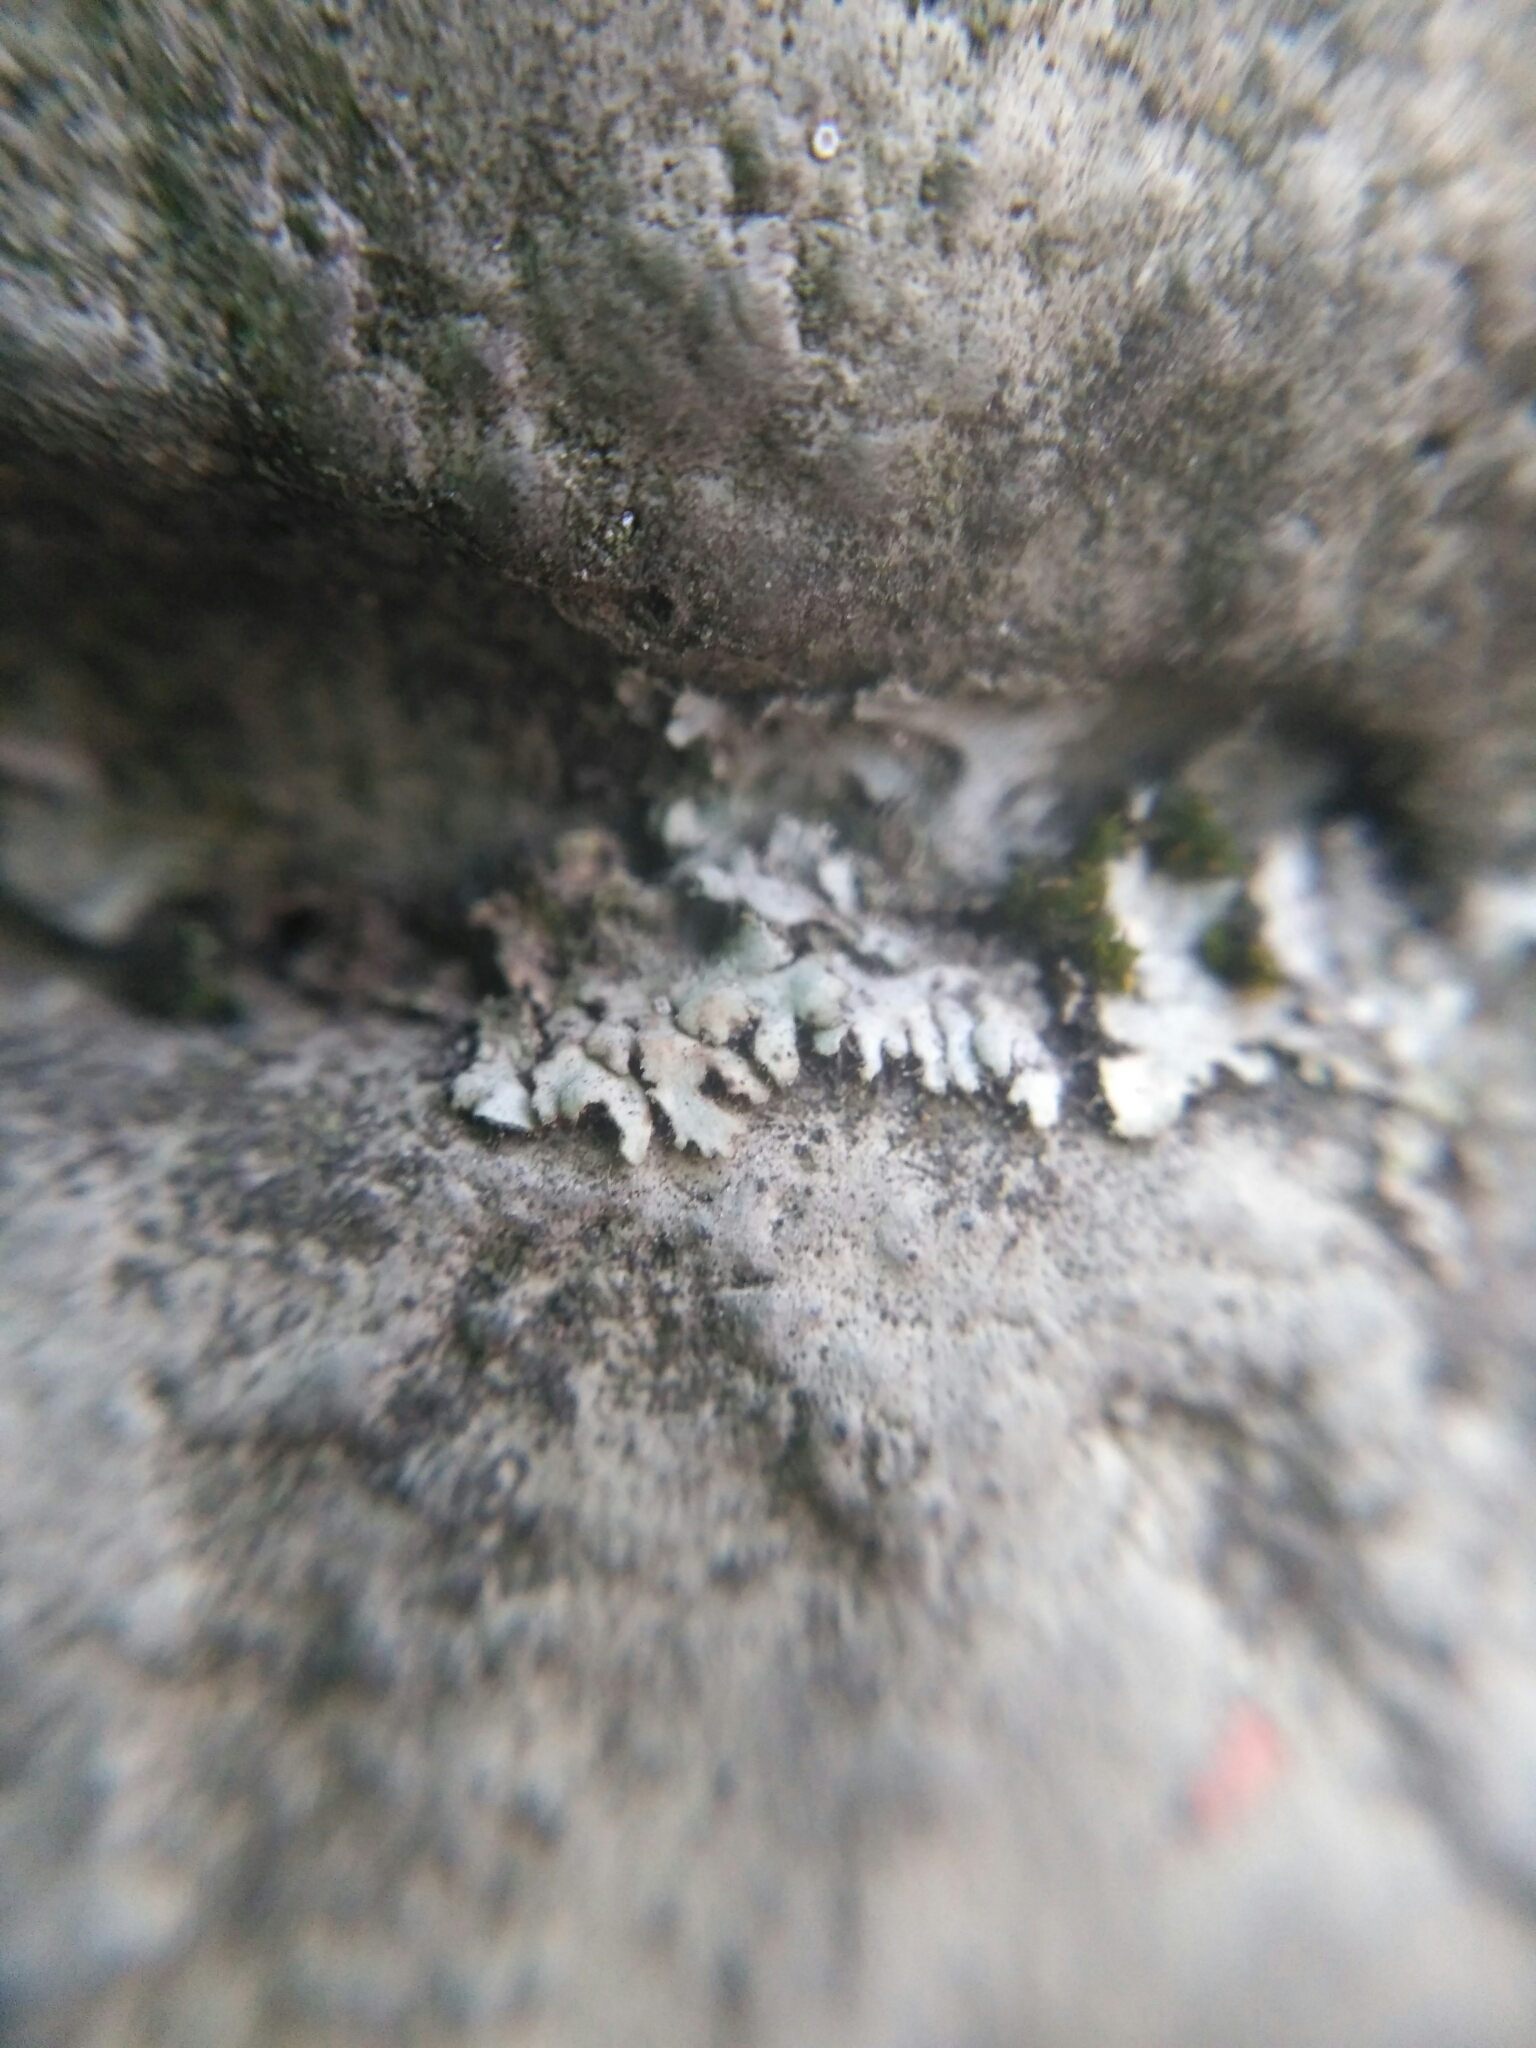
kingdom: Fungi
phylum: Ascomycota
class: Lecanoromycetes
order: Caliciales
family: Physciaceae
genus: Phaeophyscia
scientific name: Phaeophyscia orbicularis
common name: Mealy shadow lichen
